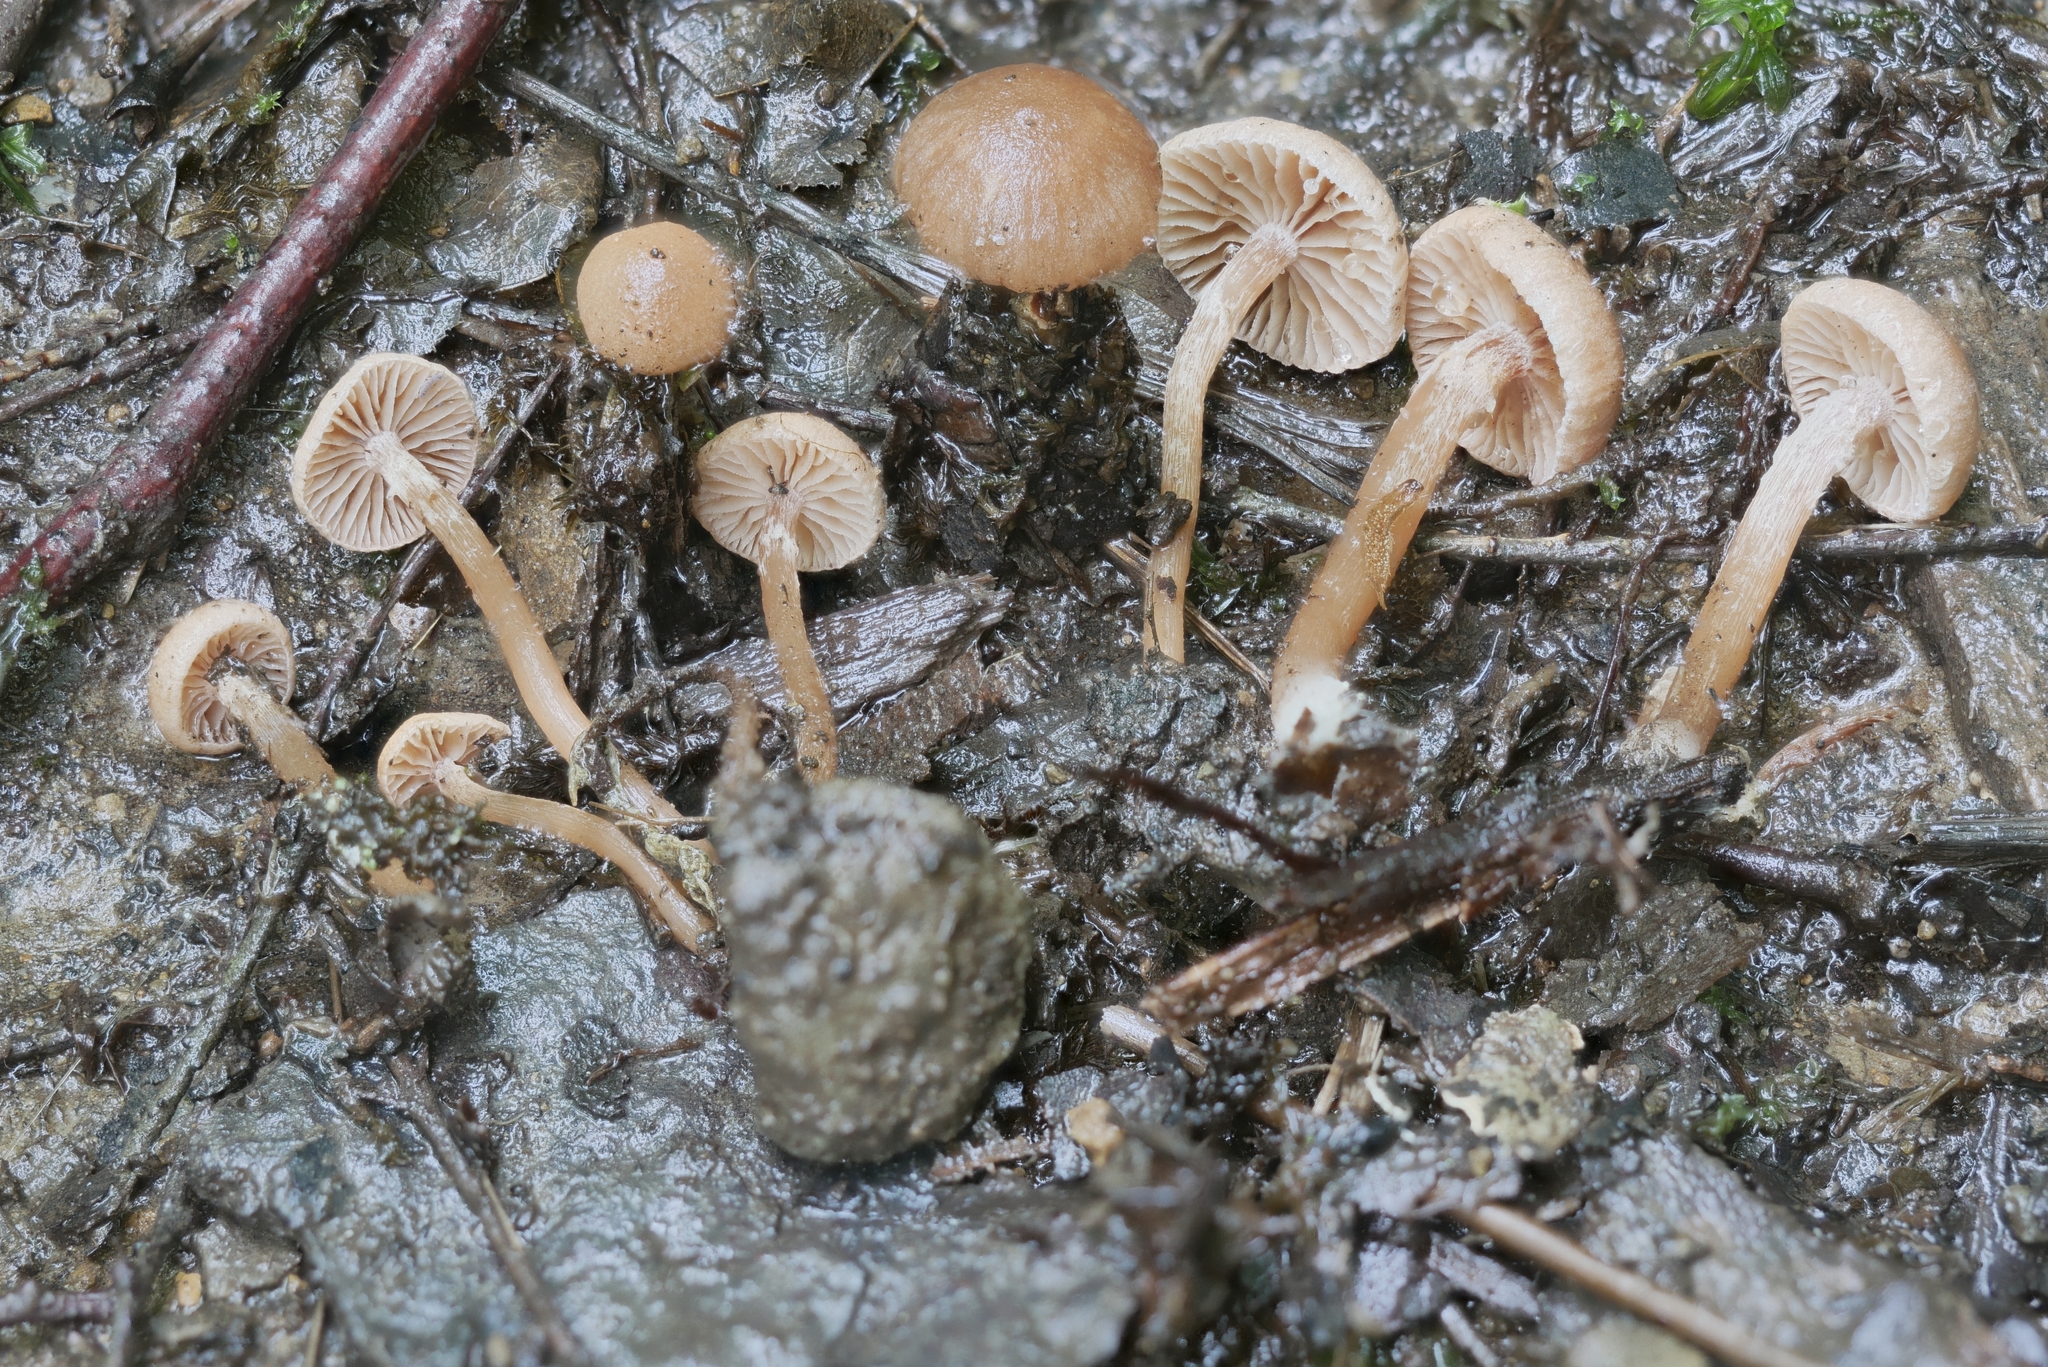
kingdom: Fungi
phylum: Basidiomycota
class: Agaricomycetes
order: Agaricales
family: Hydnangiaceae
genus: Laccaria
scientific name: Laccaria ohiensis
